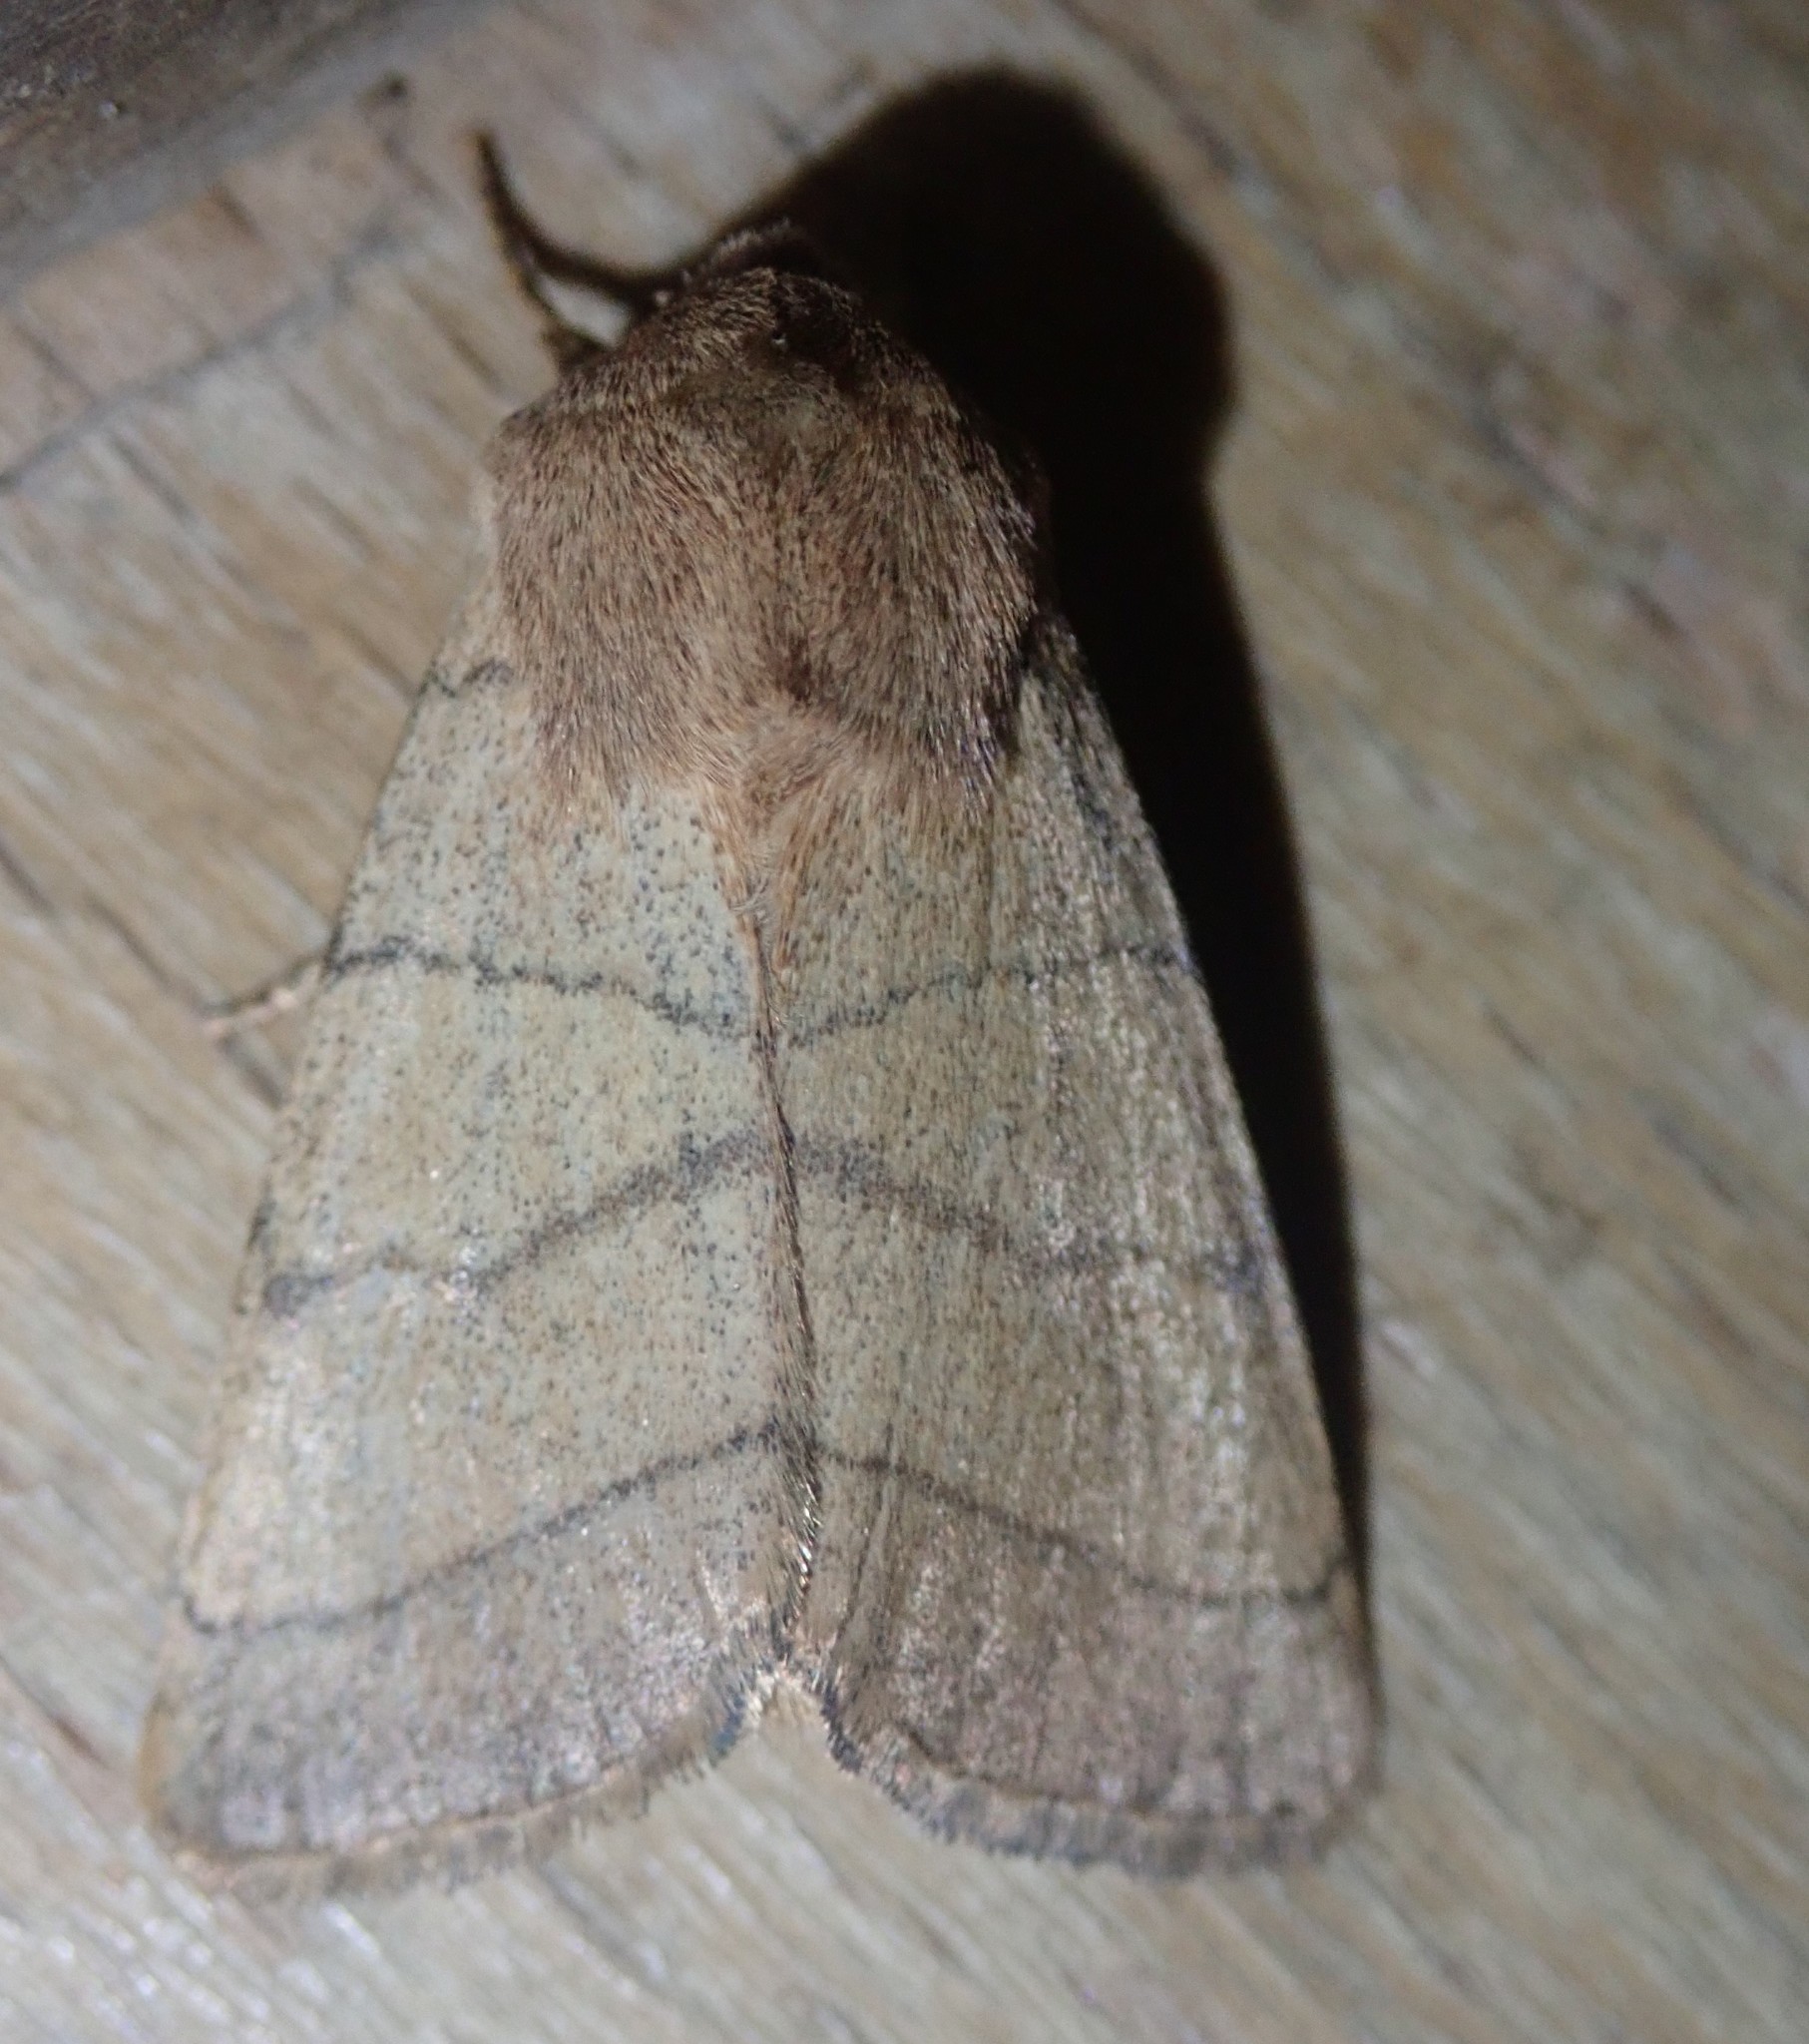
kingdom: Animalia
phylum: Arthropoda
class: Insecta
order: Lepidoptera
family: Noctuidae
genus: Charanyca
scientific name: Charanyca trigrammica
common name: Treble lines
